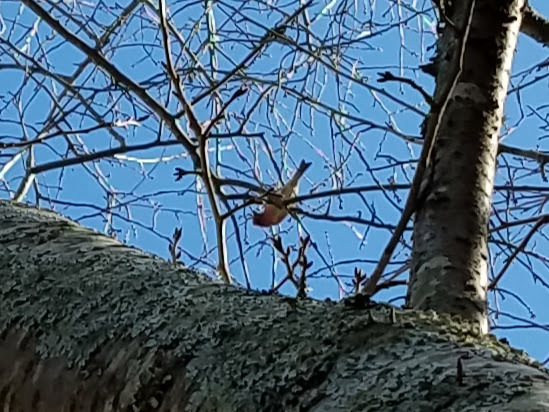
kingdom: Animalia
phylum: Chordata
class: Aves
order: Passeriformes
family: Fringillidae
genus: Haemorhous
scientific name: Haemorhous purpureus
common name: Purple finch
